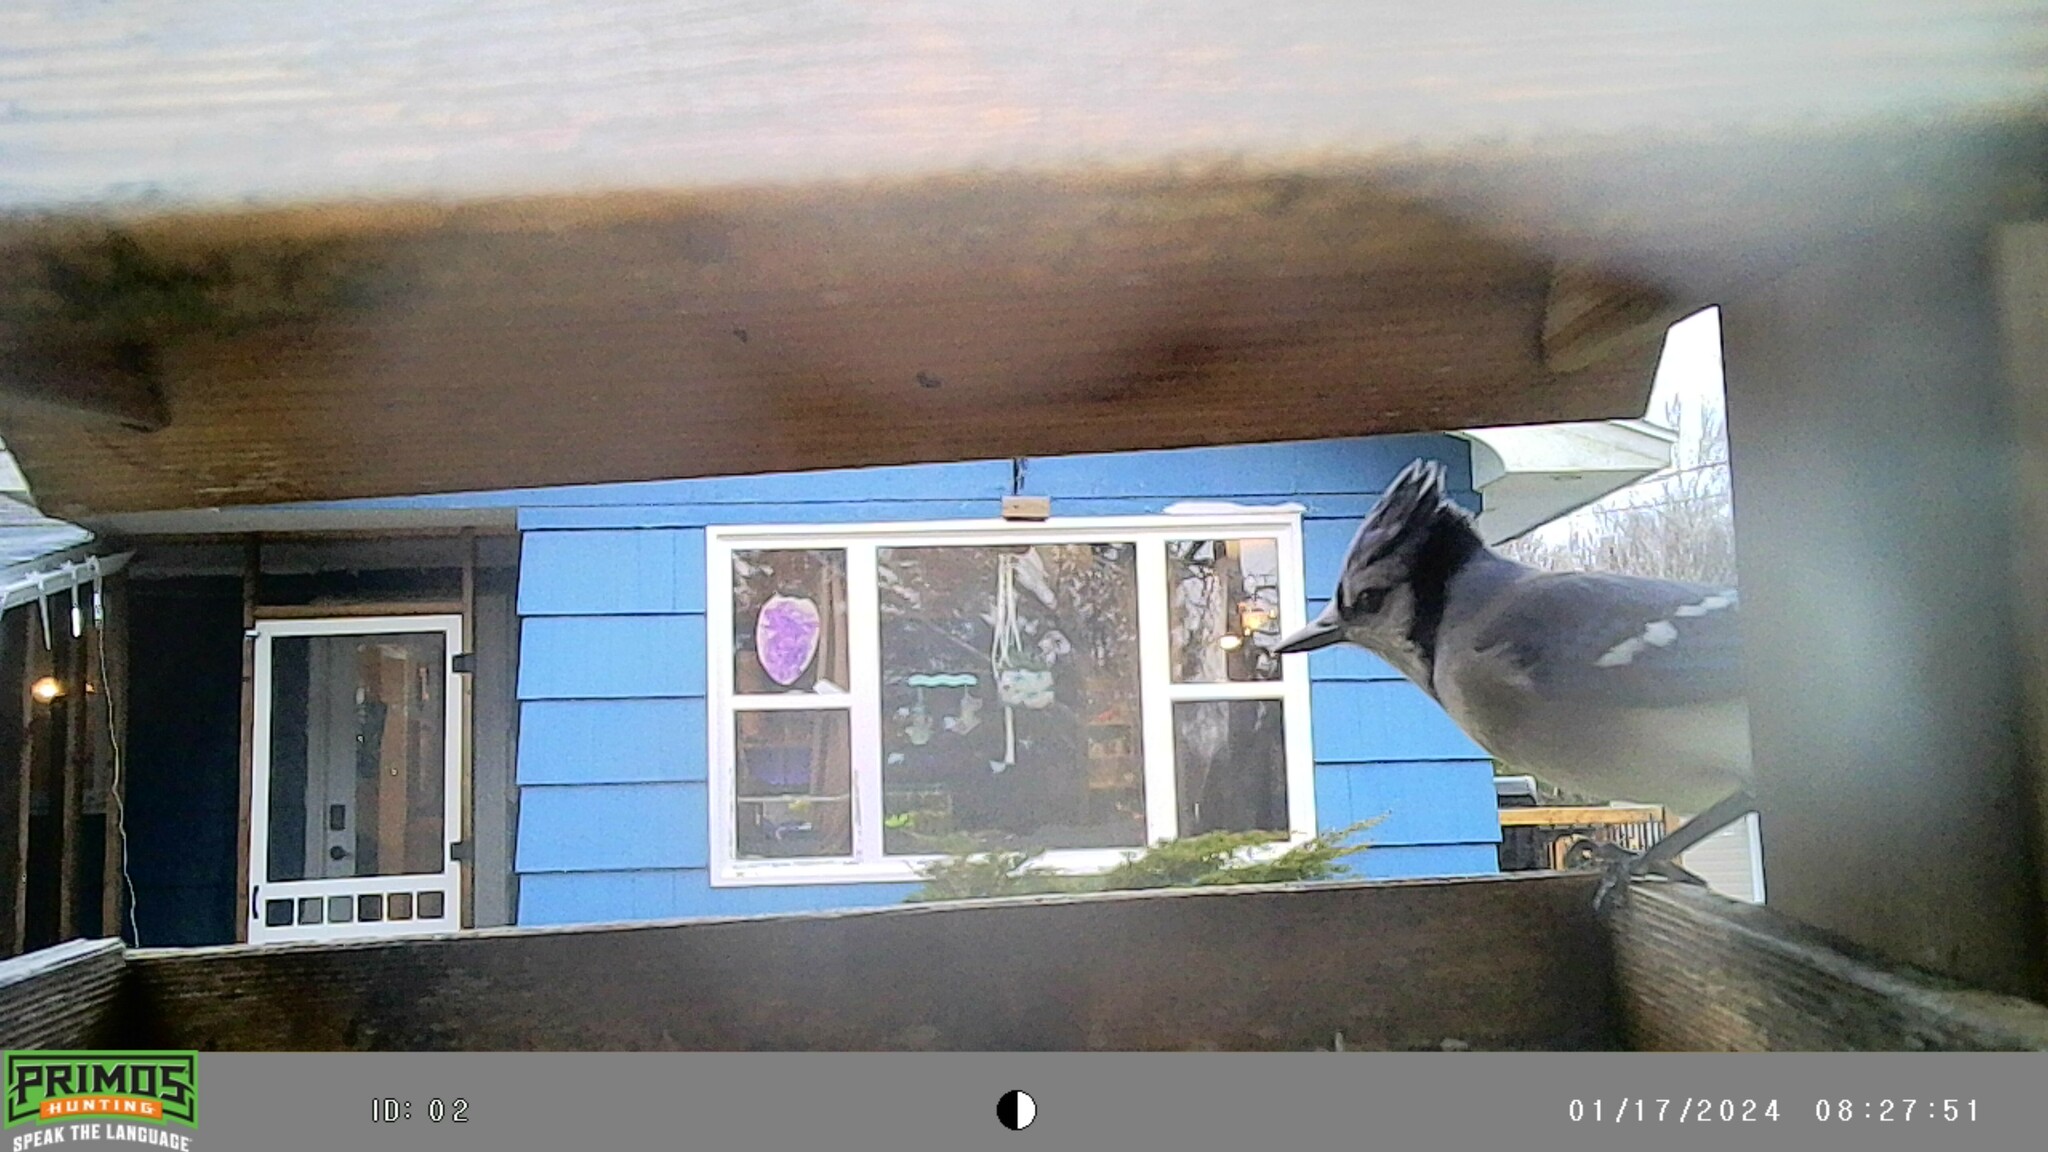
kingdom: Animalia
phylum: Chordata
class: Aves
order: Passeriformes
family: Corvidae
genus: Cyanocitta
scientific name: Cyanocitta cristata
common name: Blue jay
